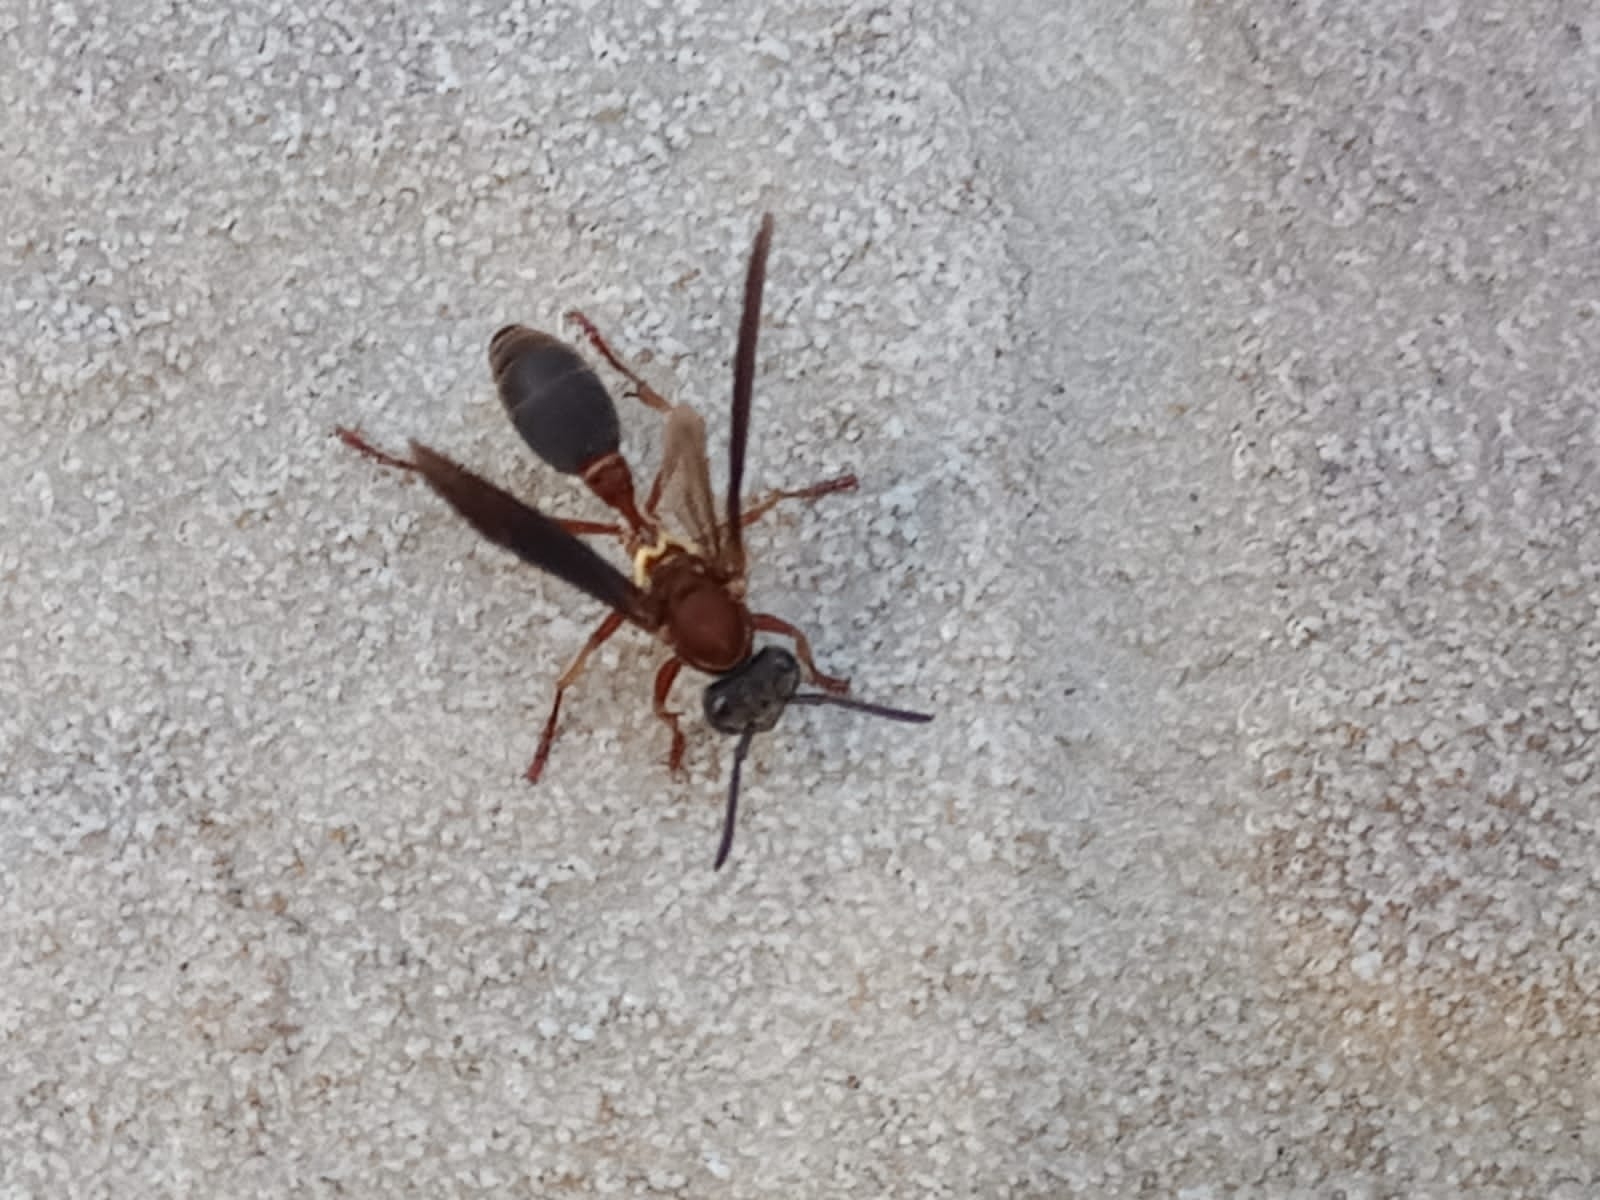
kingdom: Animalia
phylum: Arthropoda
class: Insecta
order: Hymenoptera
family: Eumenidae
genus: Polybia
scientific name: Polybia sericea
